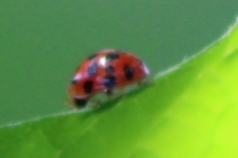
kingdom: Animalia
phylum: Arthropoda
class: Insecta
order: Coleoptera
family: Coccinellidae
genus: Harmonia
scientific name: Harmonia axyridis
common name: Harlequin ladybird
